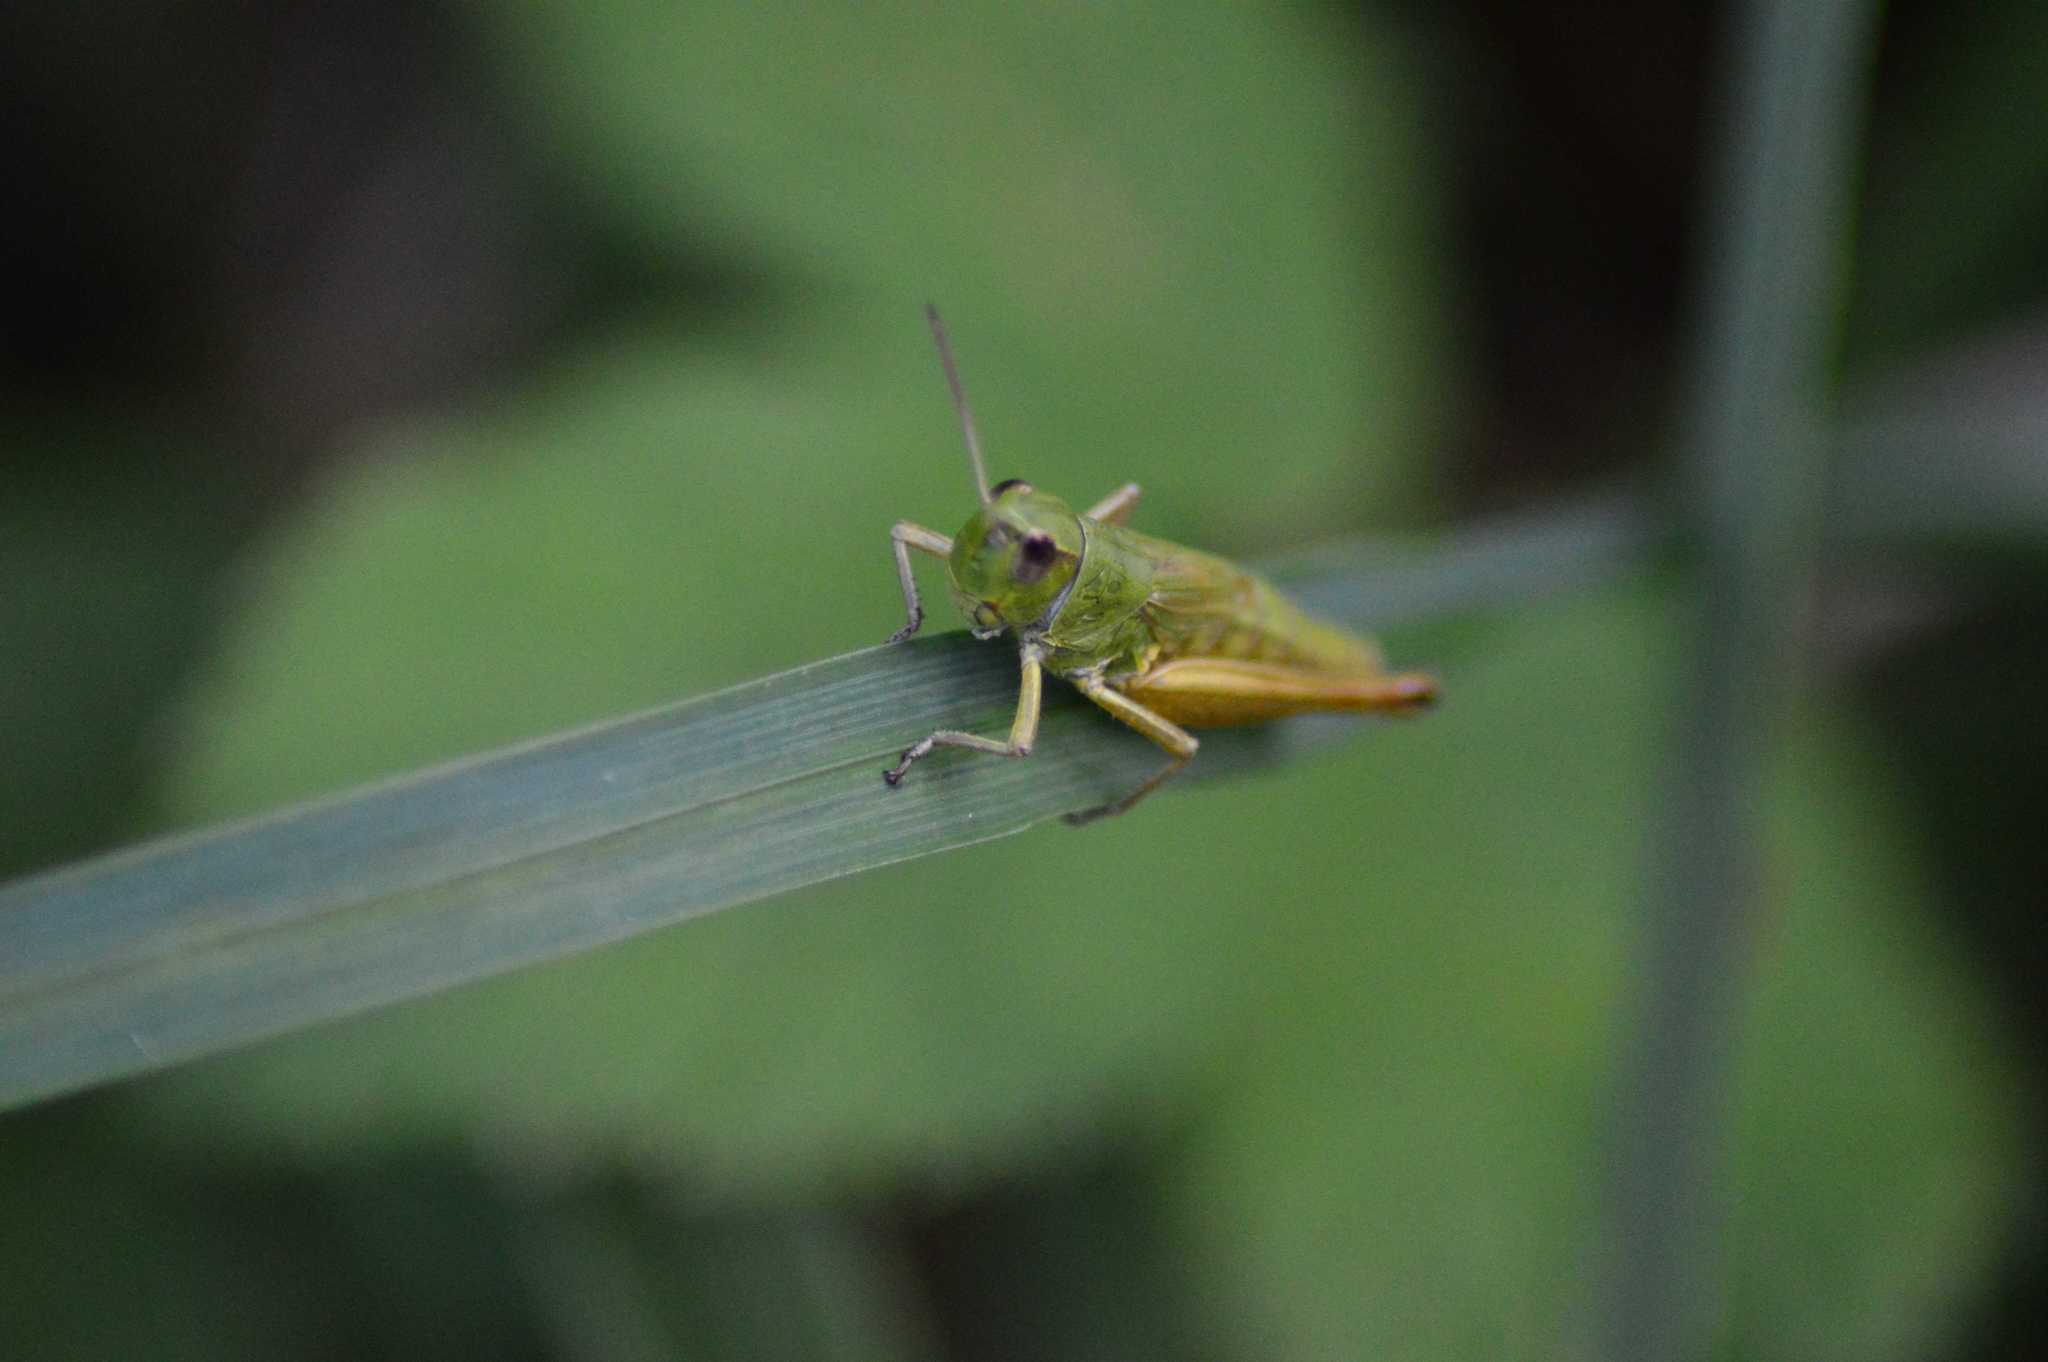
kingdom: Animalia
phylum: Arthropoda
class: Insecta
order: Orthoptera
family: Acrididae
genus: Pseudochorthippus
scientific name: Pseudochorthippus parallelus
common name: Meadow grasshopper
